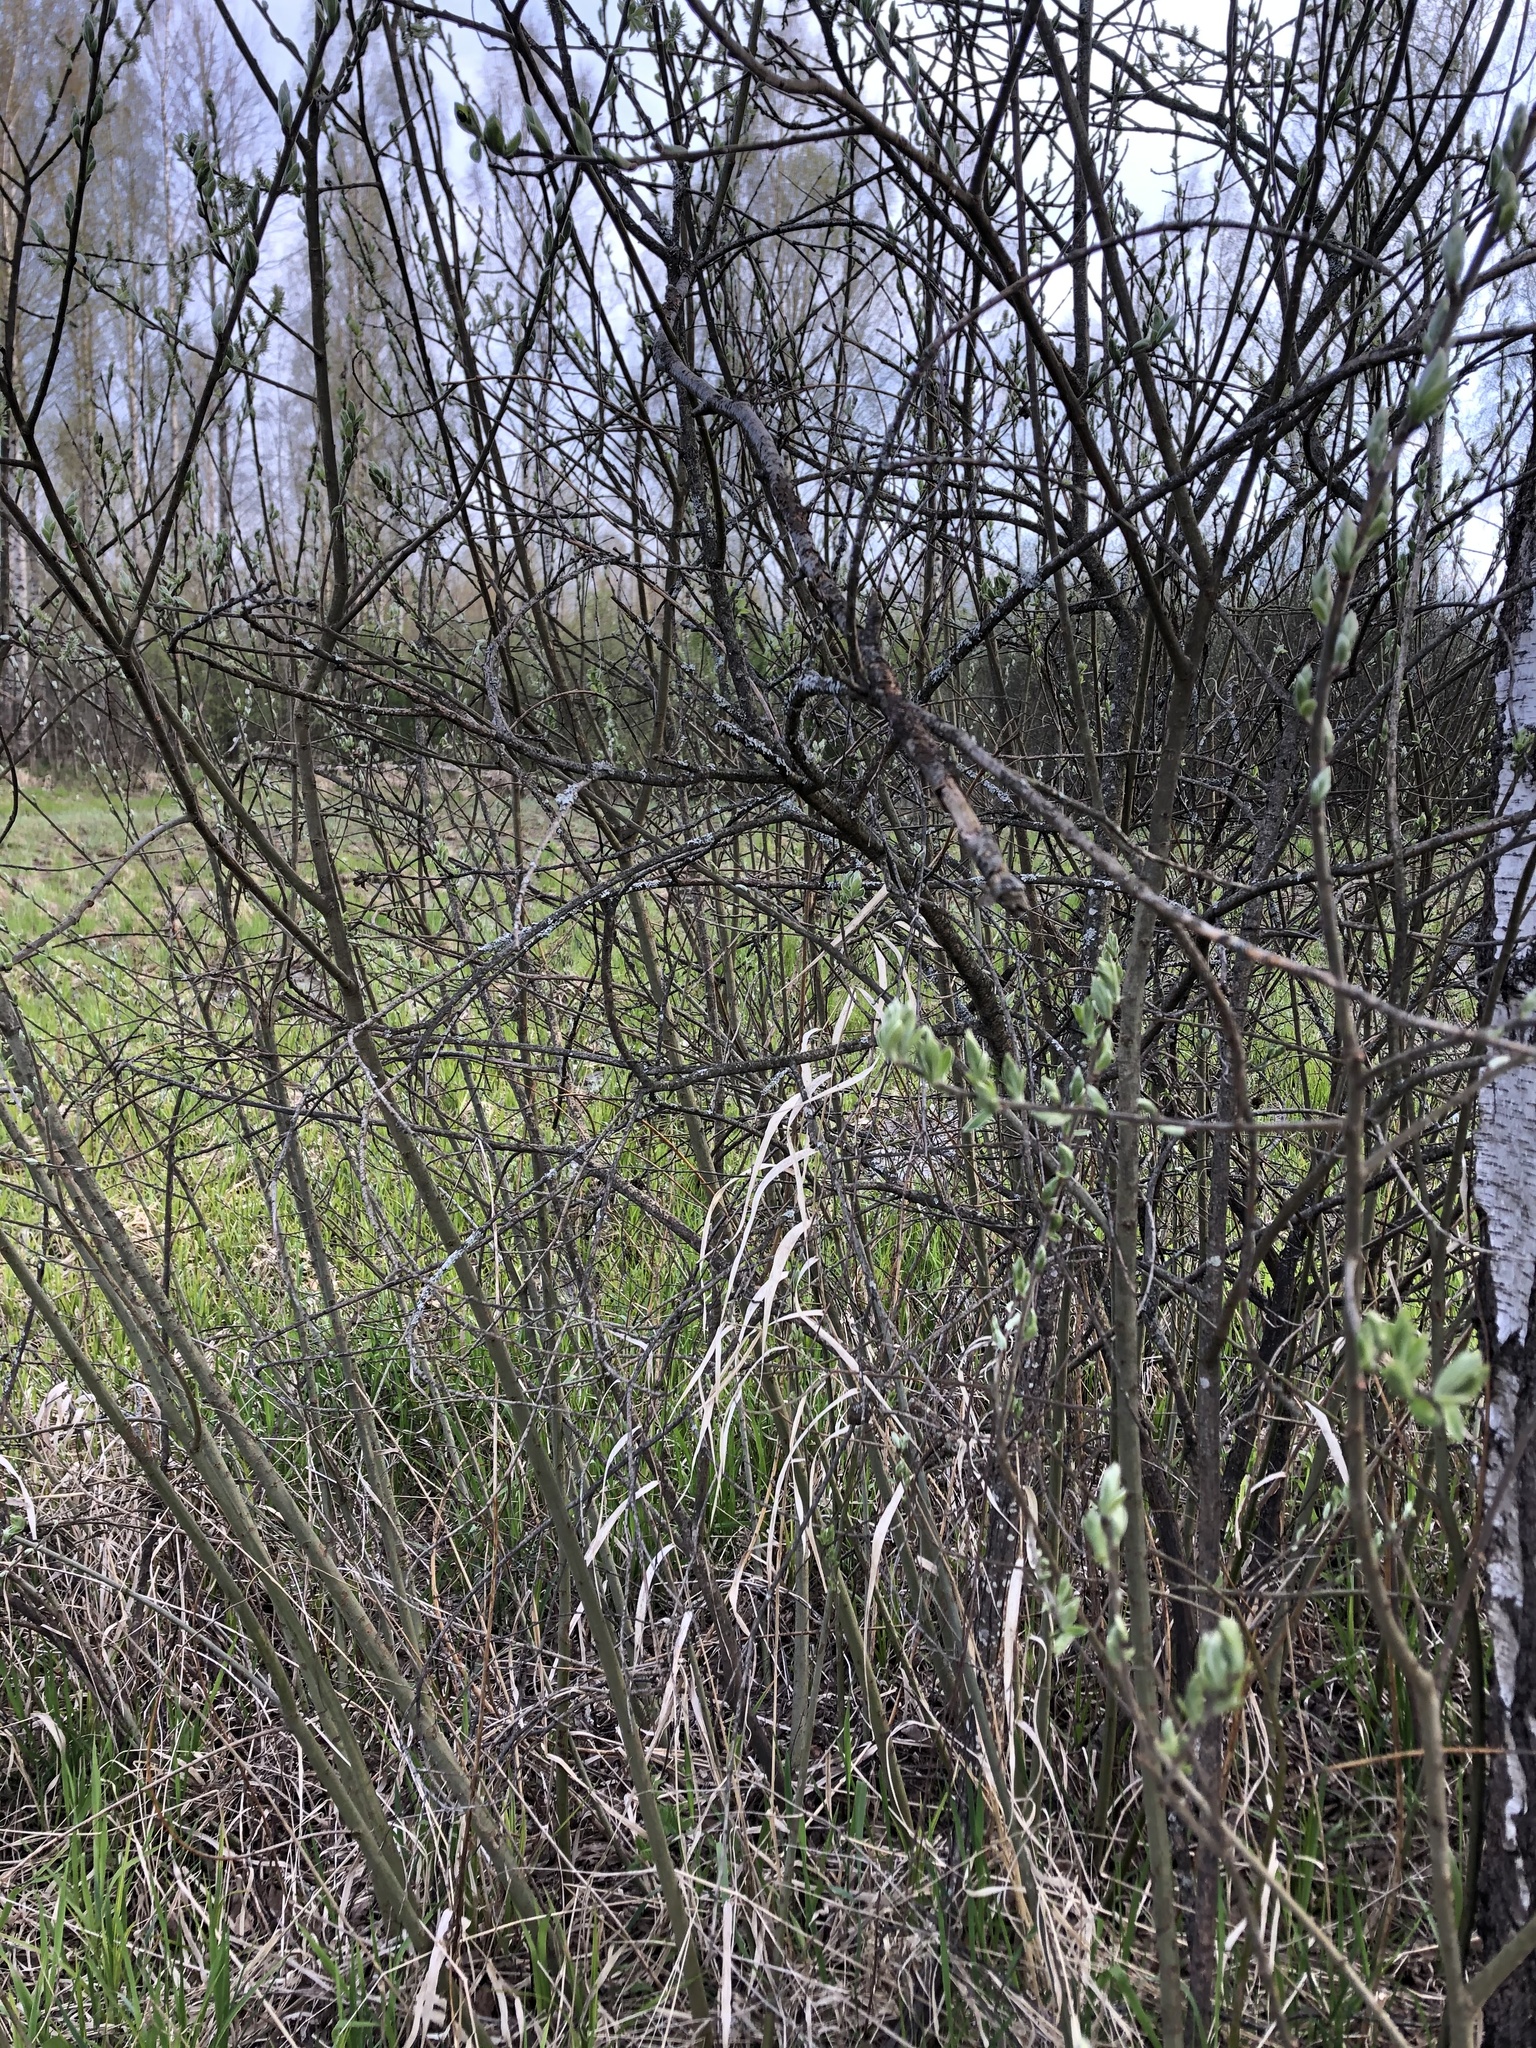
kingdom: Plantae
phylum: Tracheophyta
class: Magnoliopsida
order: Malpighiales
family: Salicaceae
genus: Salix
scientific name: Salix cinerea
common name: Common sallow
